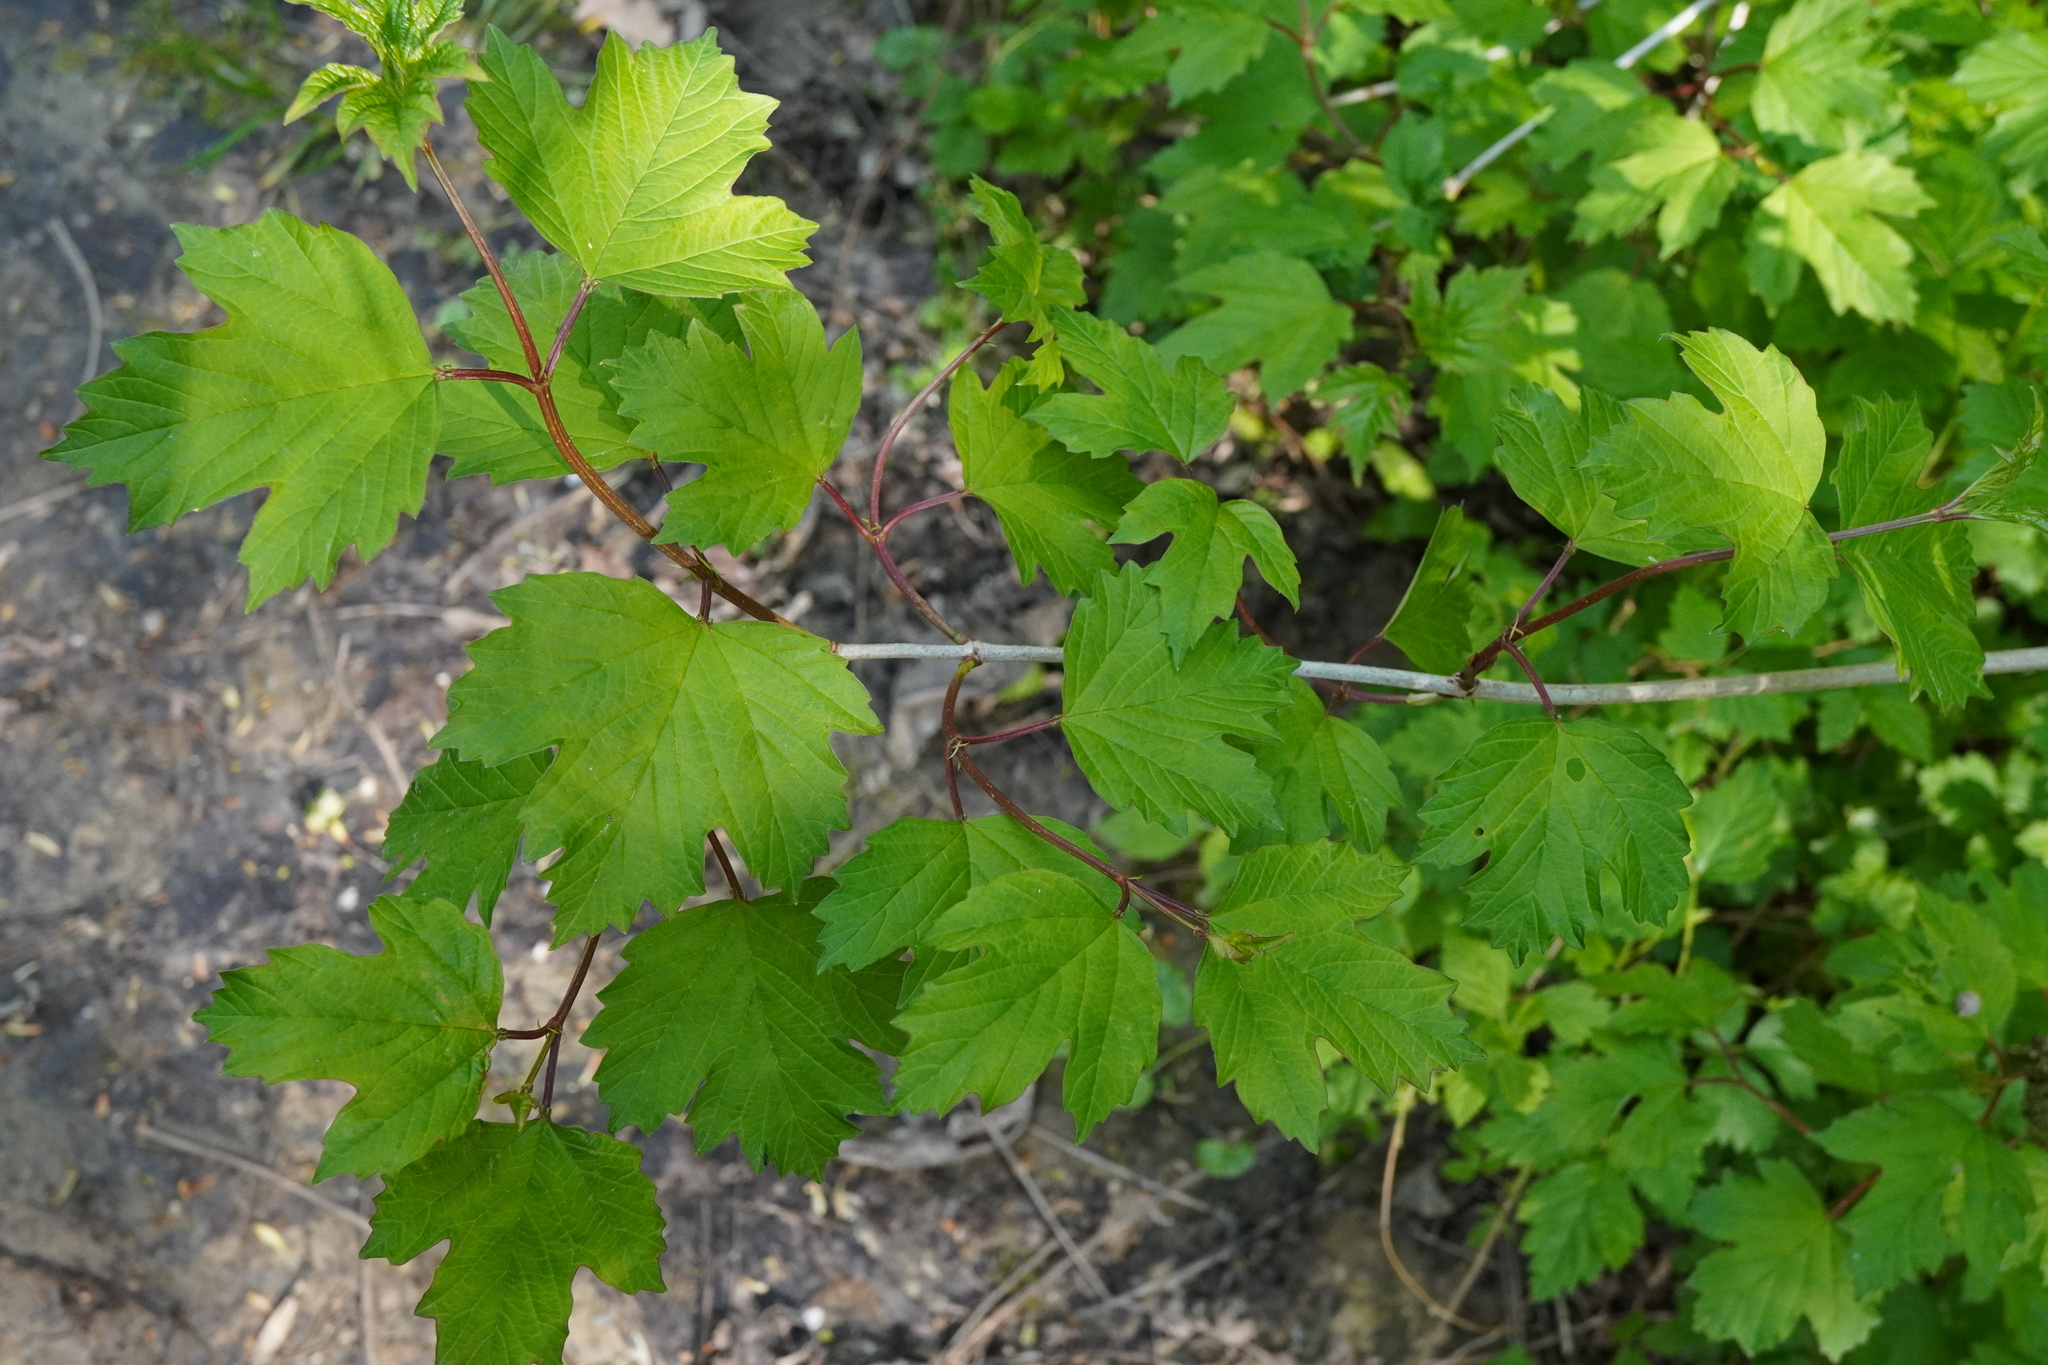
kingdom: Plantae
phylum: Tracheophyta
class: Magnoliopsida
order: Dipsacales
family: Viburnaceae
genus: Viburnum
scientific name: Viburnum opulus
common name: Guelder-rose
